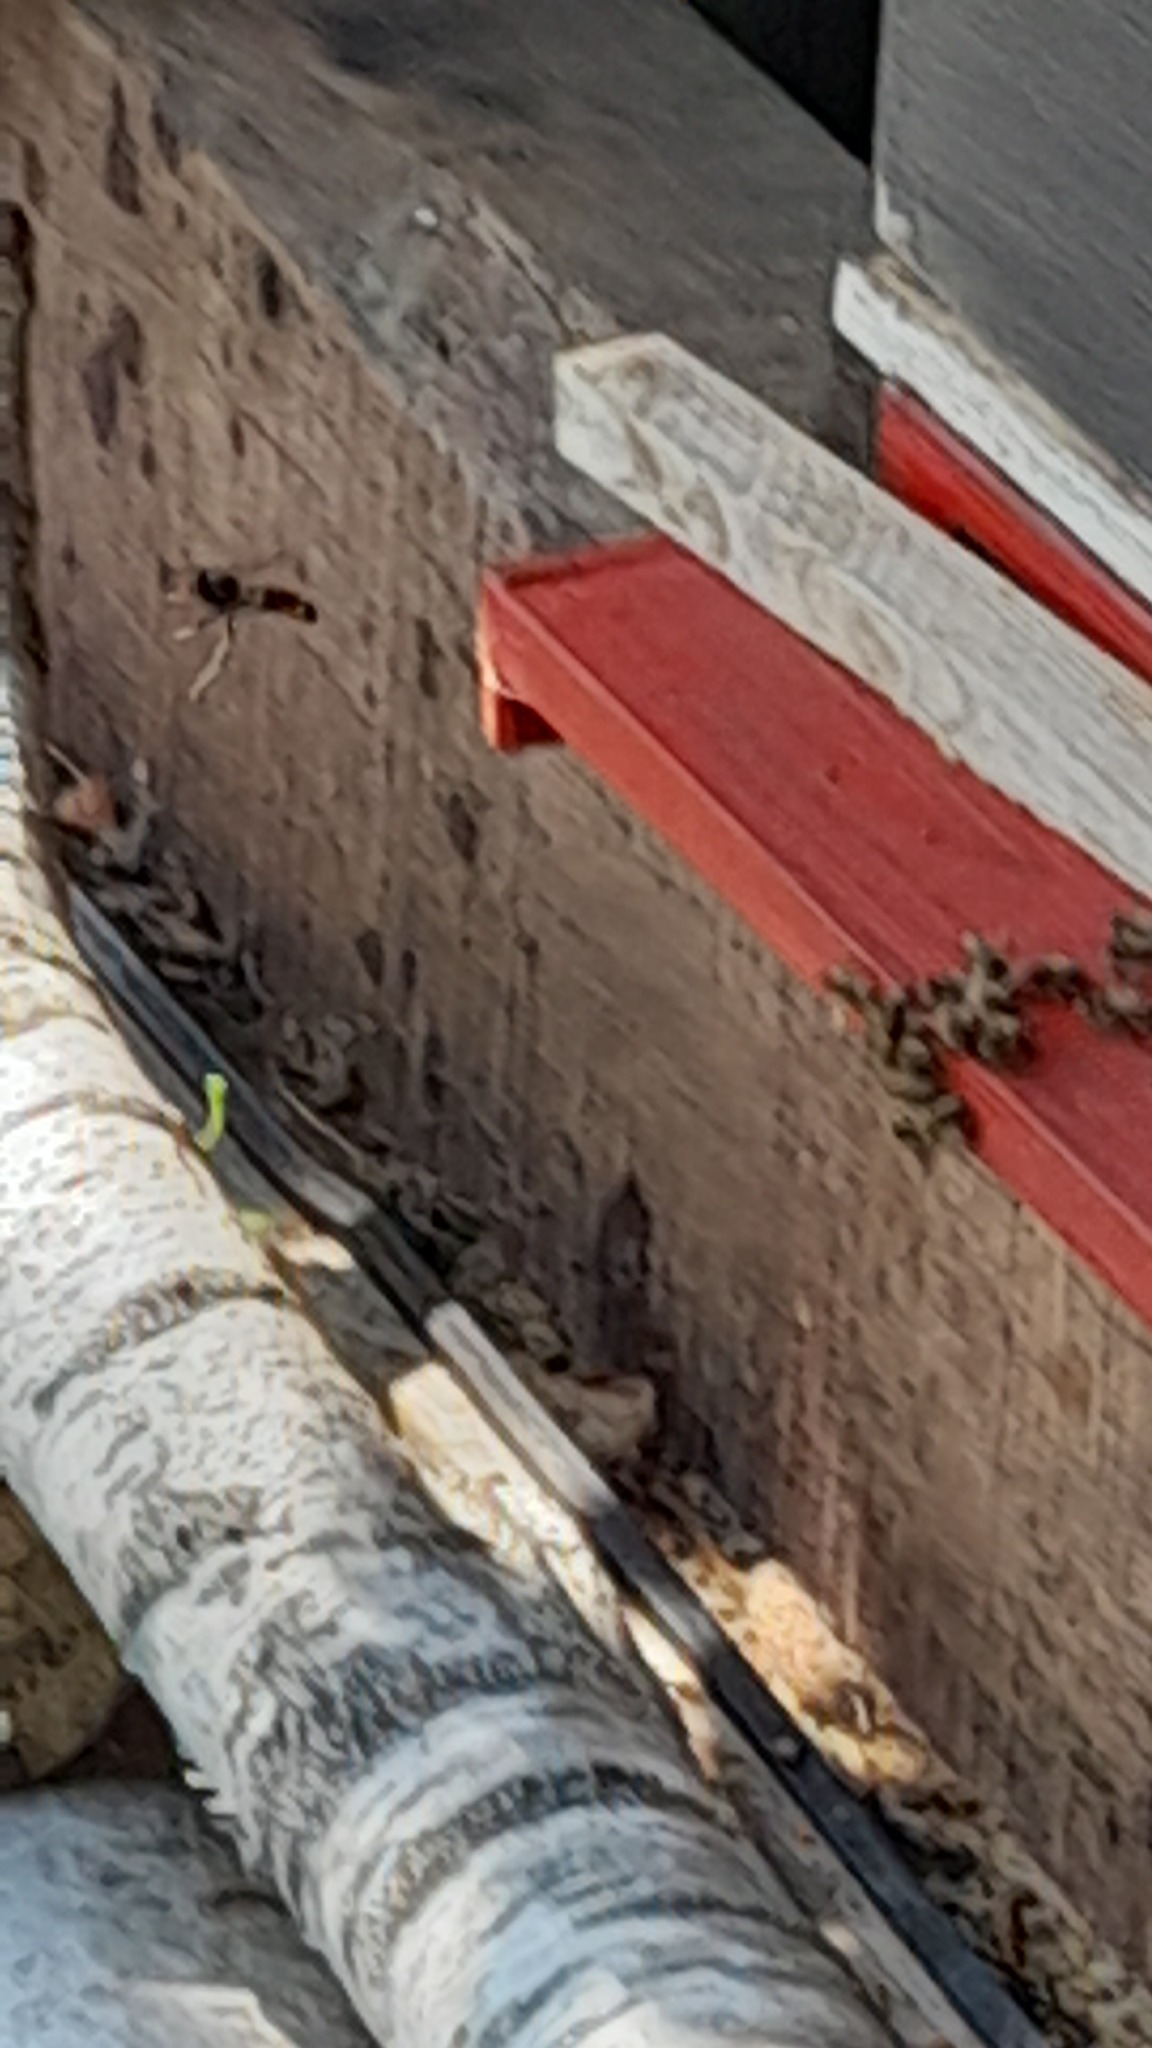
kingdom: Animalia
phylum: Arthropoda
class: Insecta
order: Hymenoptera
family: Vespidae
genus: Vespa
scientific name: Vespa velutina
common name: Asian hornet
